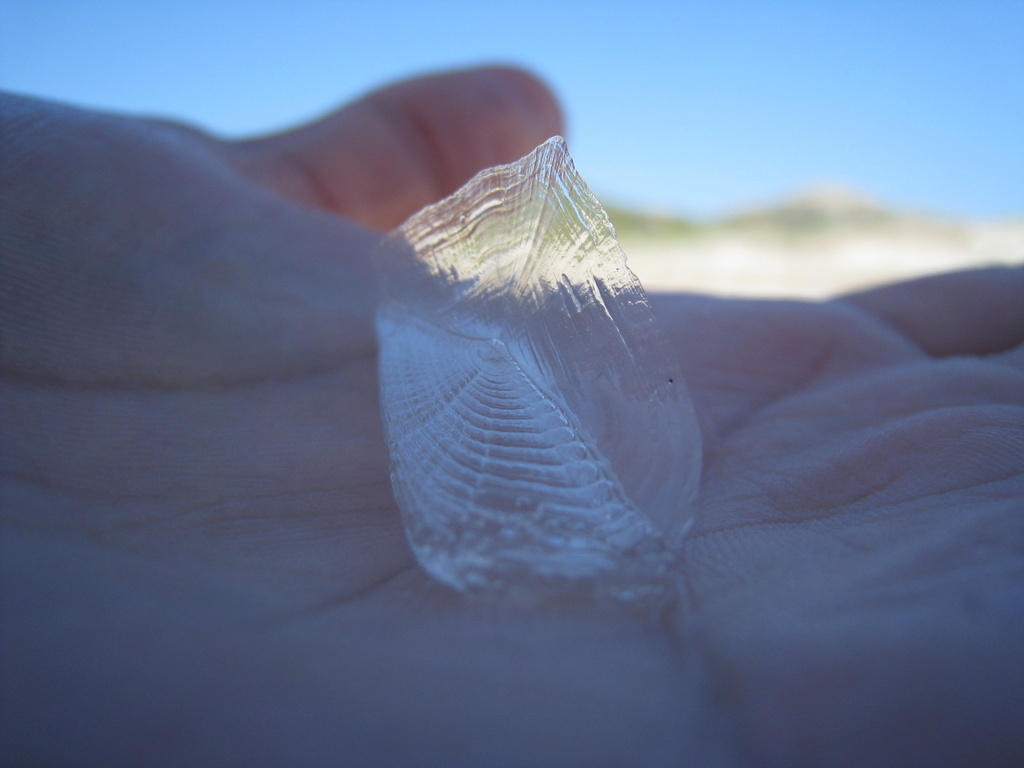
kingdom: Animalia
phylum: Cnidaria
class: Hydrozoa
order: Anthoathecata
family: Porpitidae
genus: Velella
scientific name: Velella velella
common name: By-the-wind-sailor
